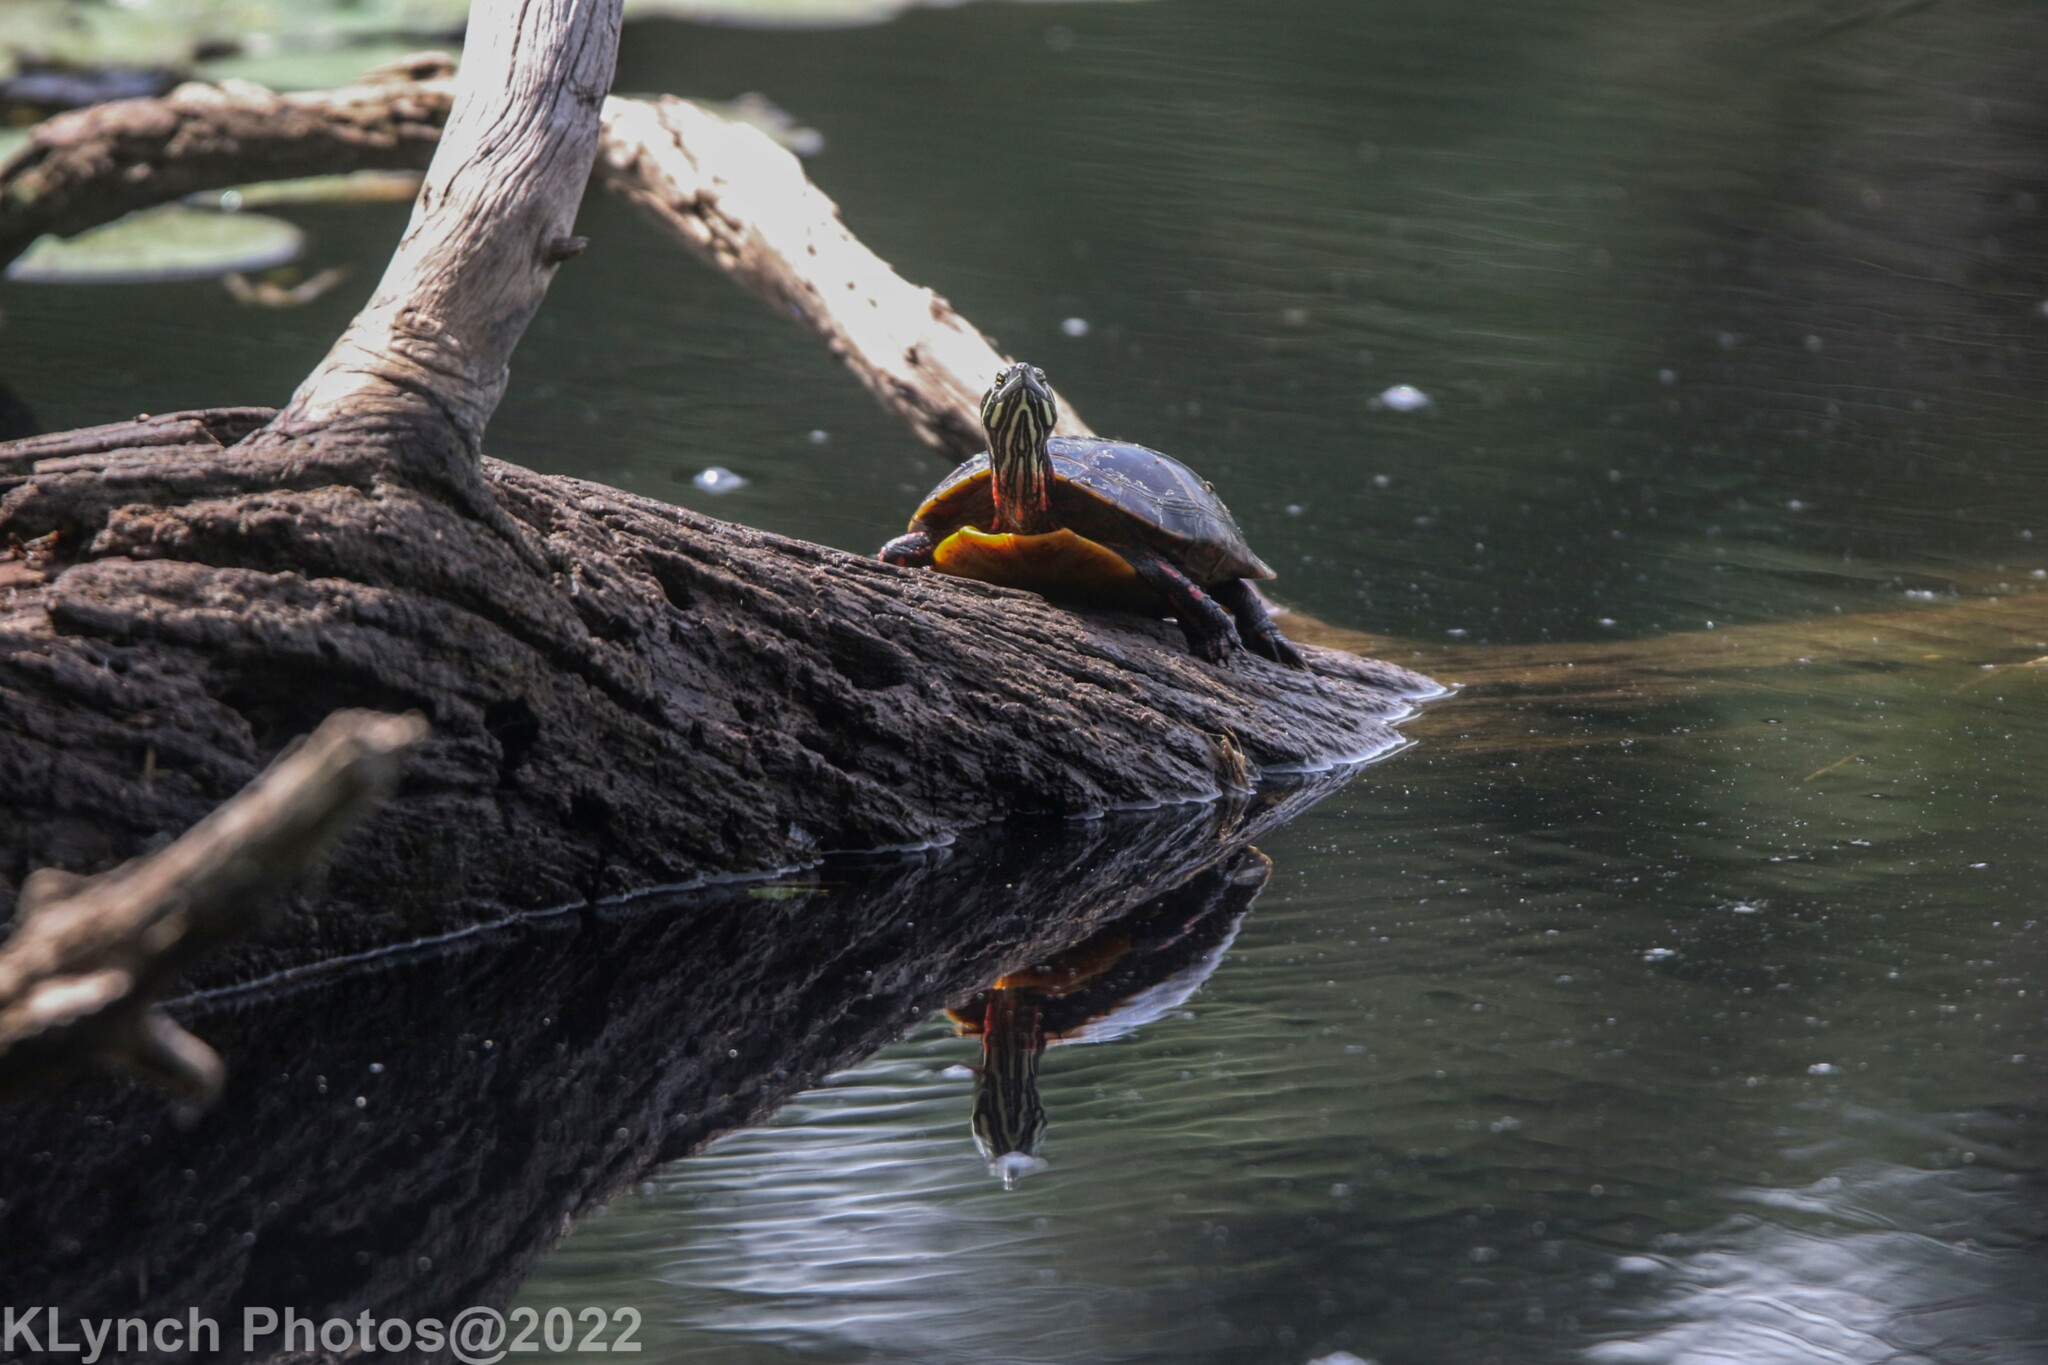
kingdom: Animalia
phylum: Chordata
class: Testudines
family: Emydidae
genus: Chrysemys
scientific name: Chrysemys picta
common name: Painted turtle
